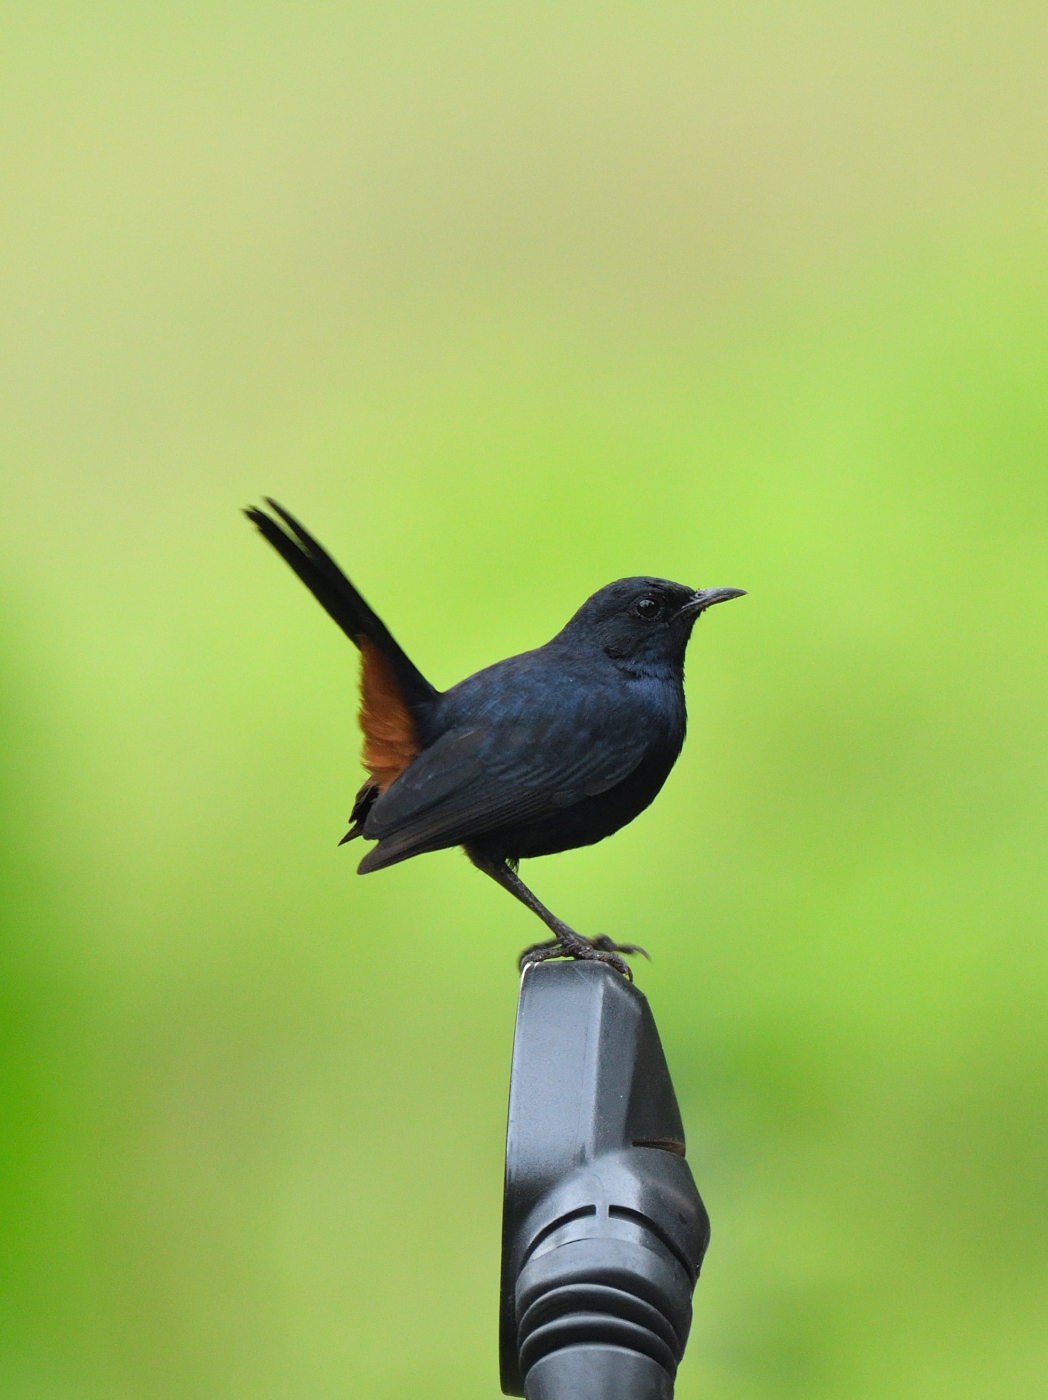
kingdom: Animalia
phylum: Chordata
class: Aves
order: Passeriformes
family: Muscicapidae
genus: Saxicoloides
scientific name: Saxicoloides fulicatus
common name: Indian robin
